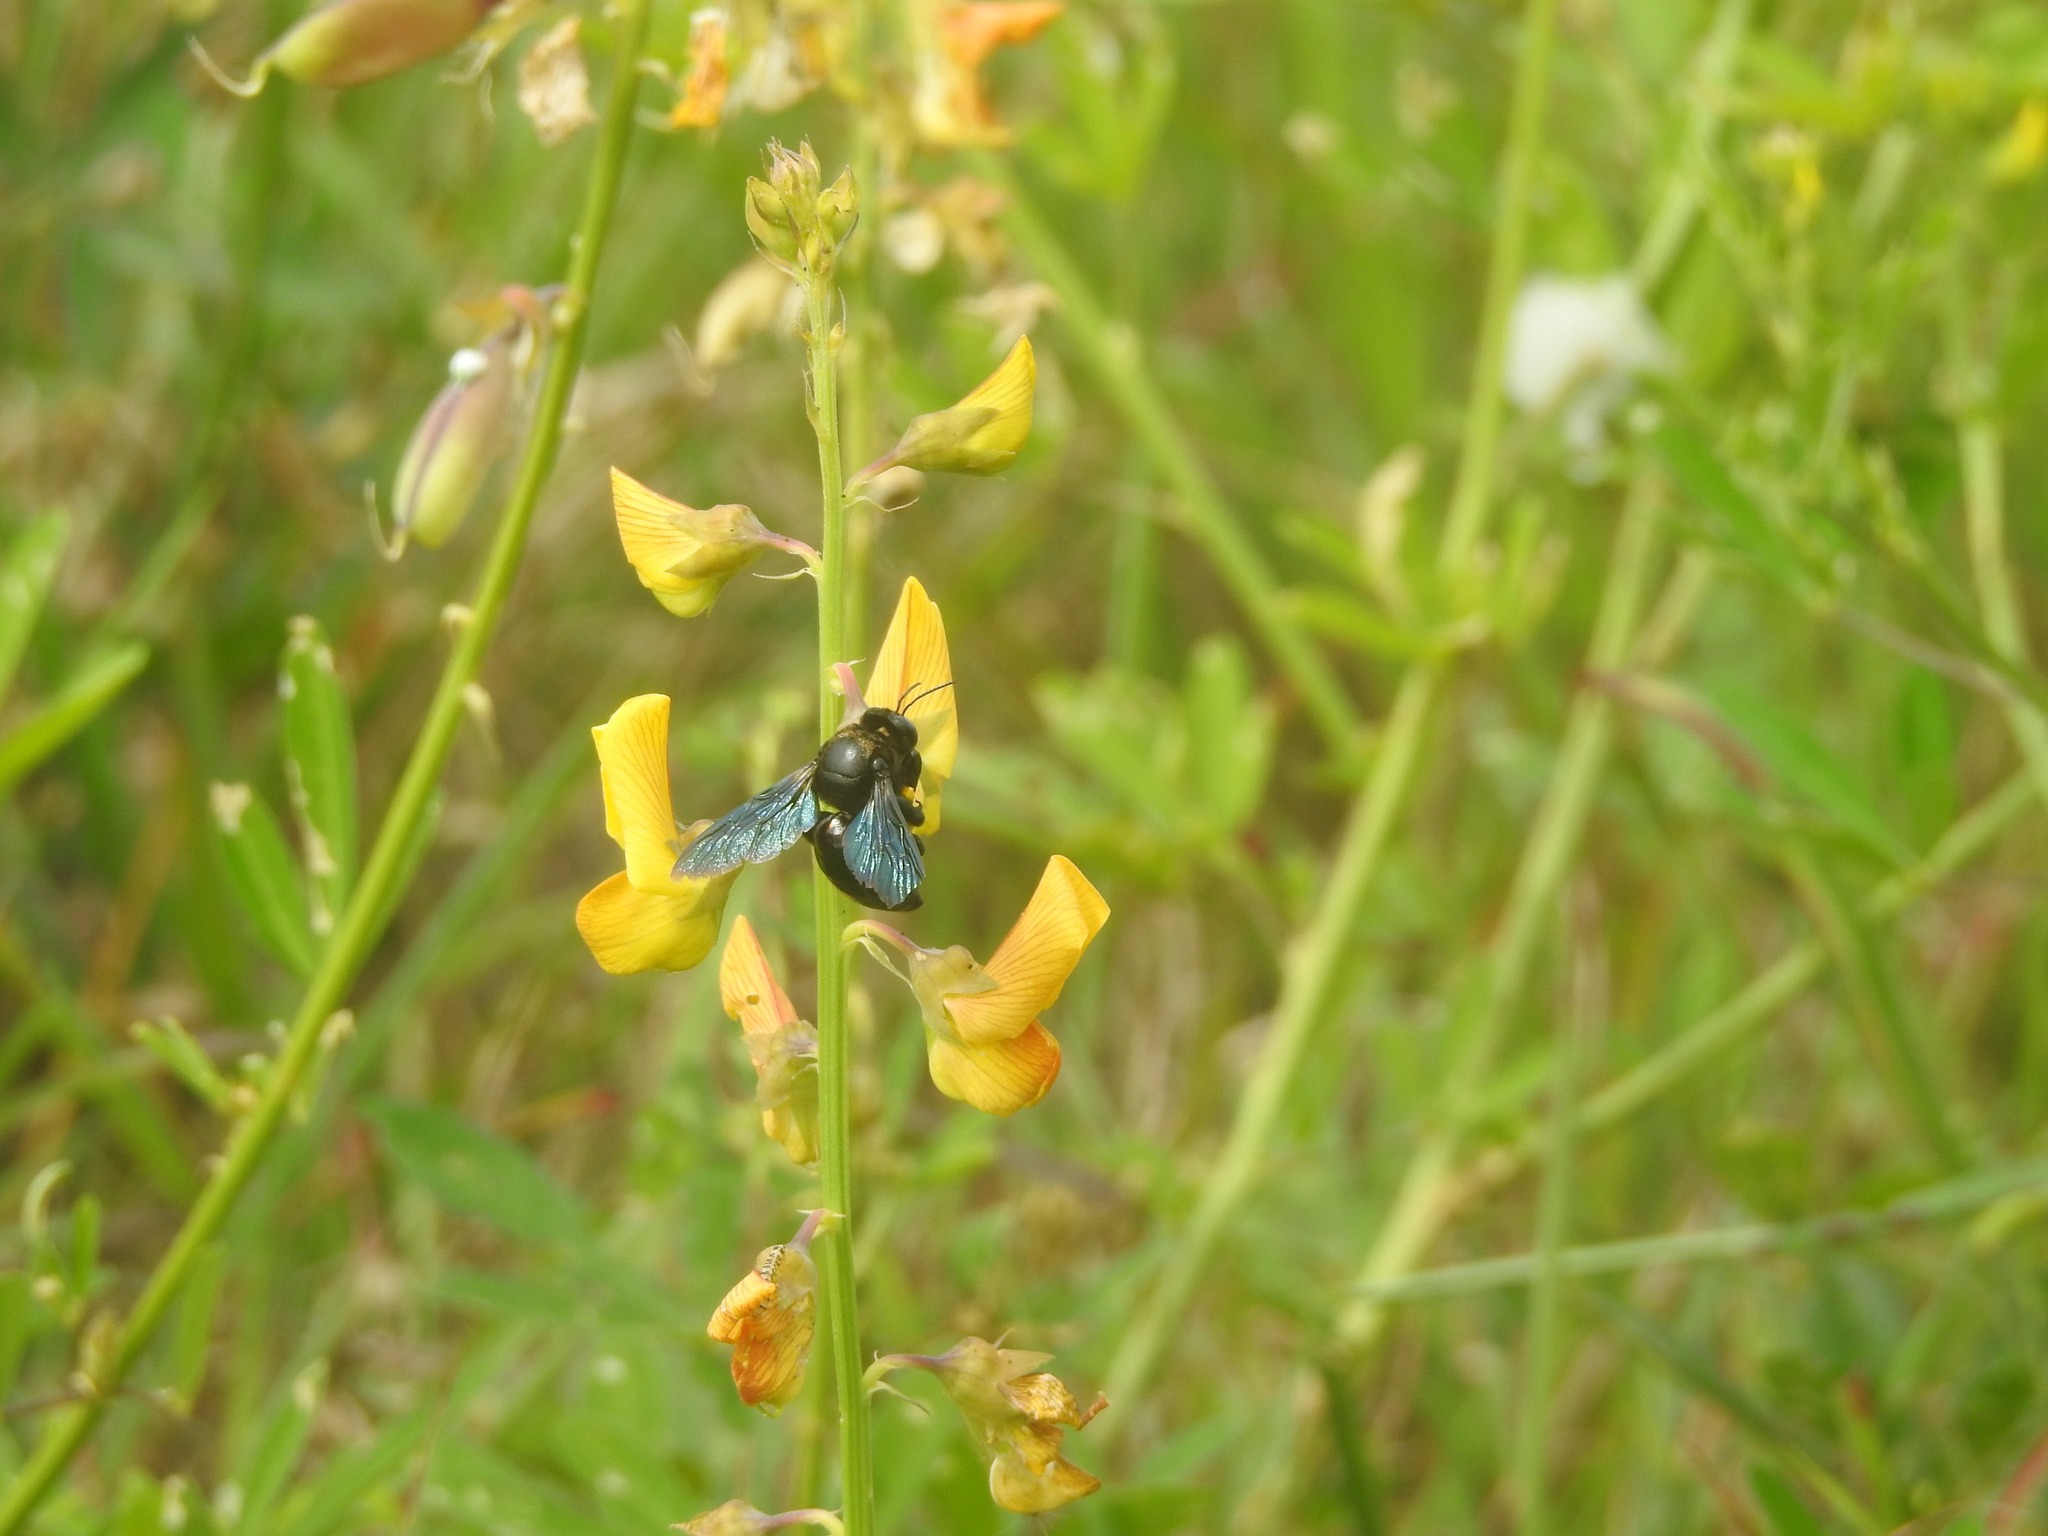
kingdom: Animalia
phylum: Arthropoda
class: Insecta
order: Hymenoptera
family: Apidae
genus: Xylocopa
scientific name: Xylocopa fenestrata
